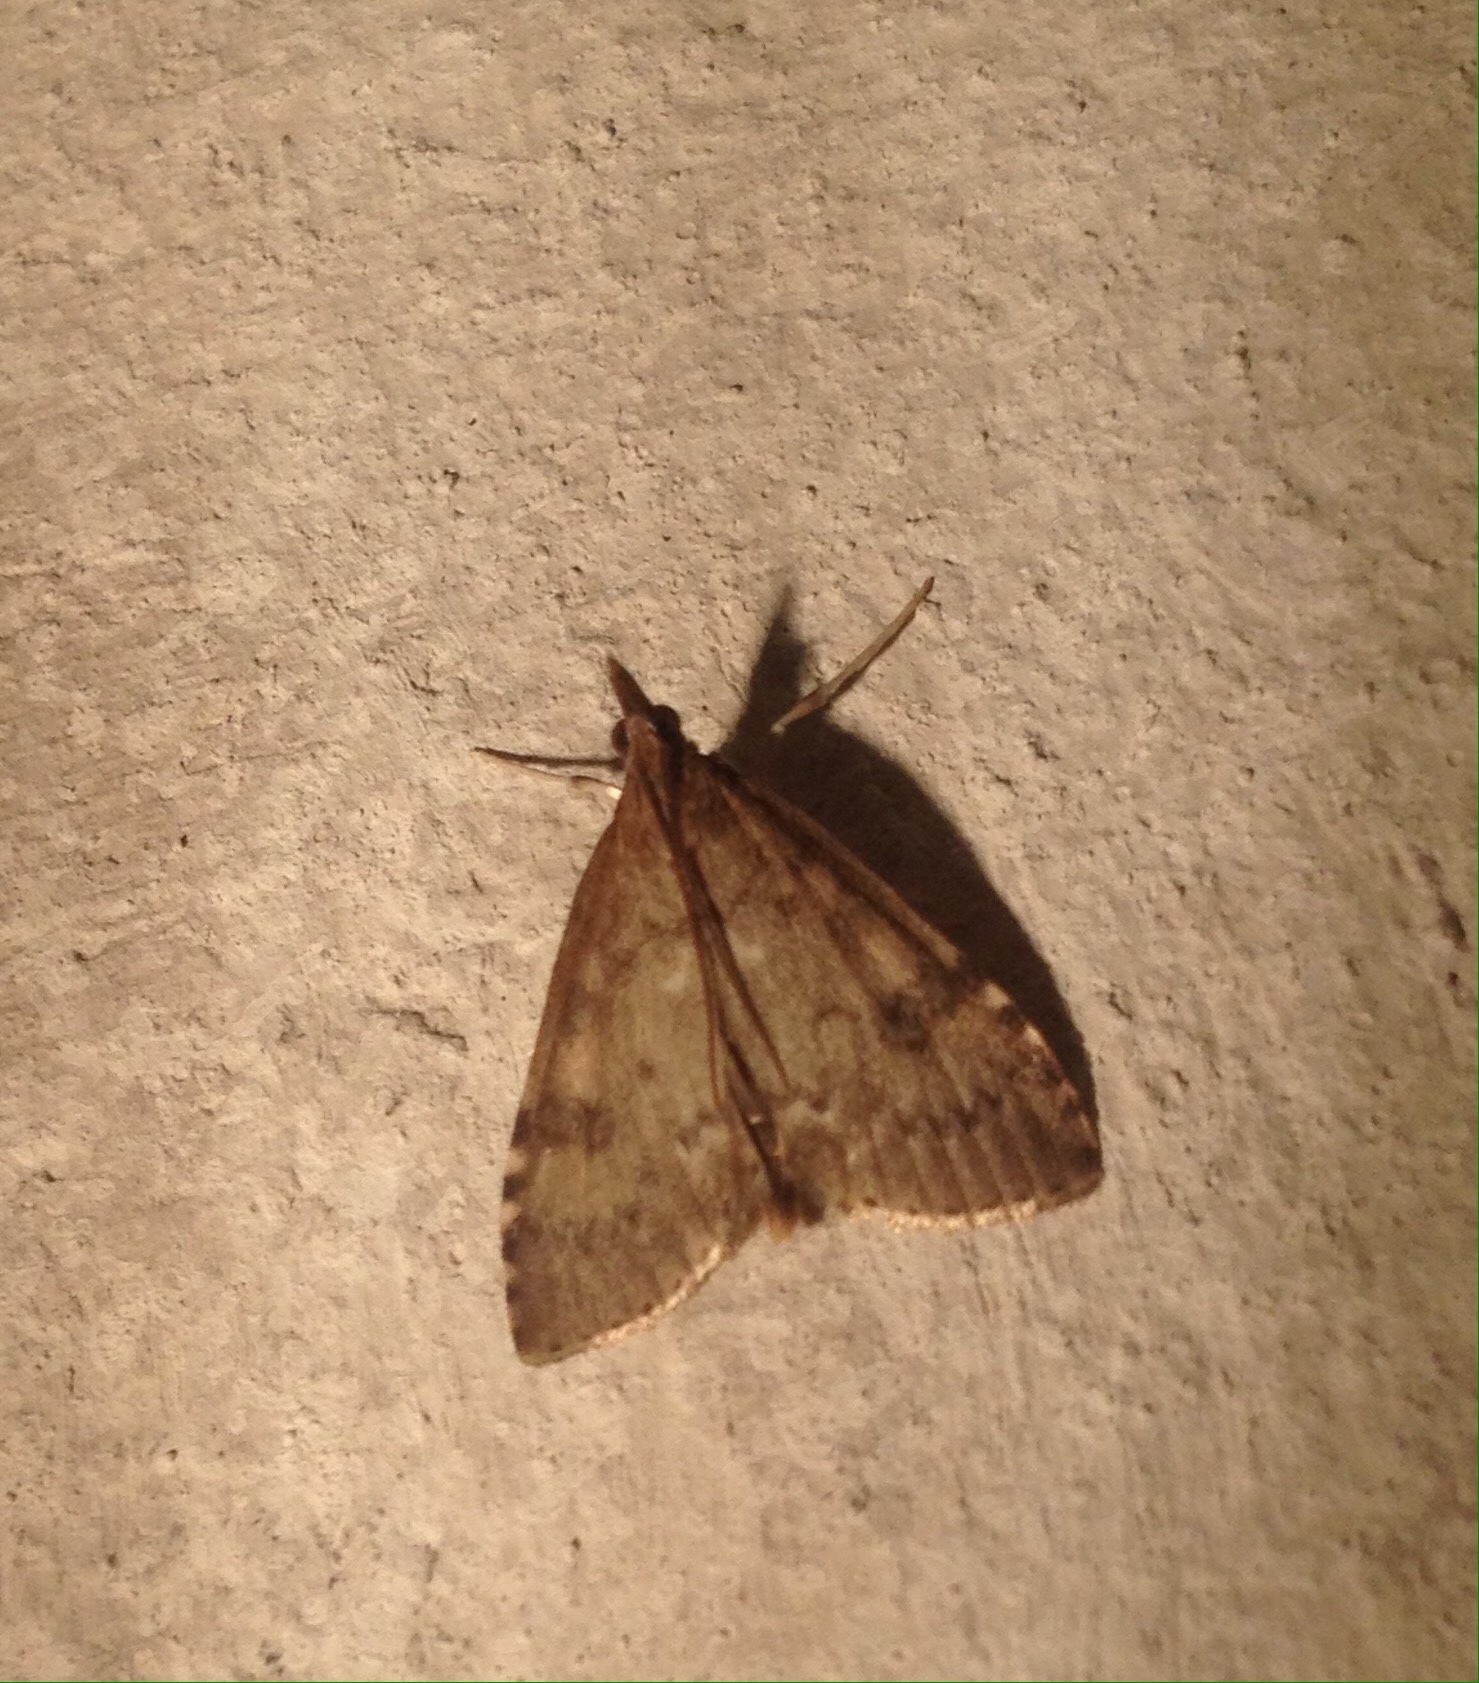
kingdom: Animalia
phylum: Arthropoda
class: Insecta
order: Lepidoptera
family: Crambidae
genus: Udea
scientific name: Udea prunalis
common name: Dusky pearl
